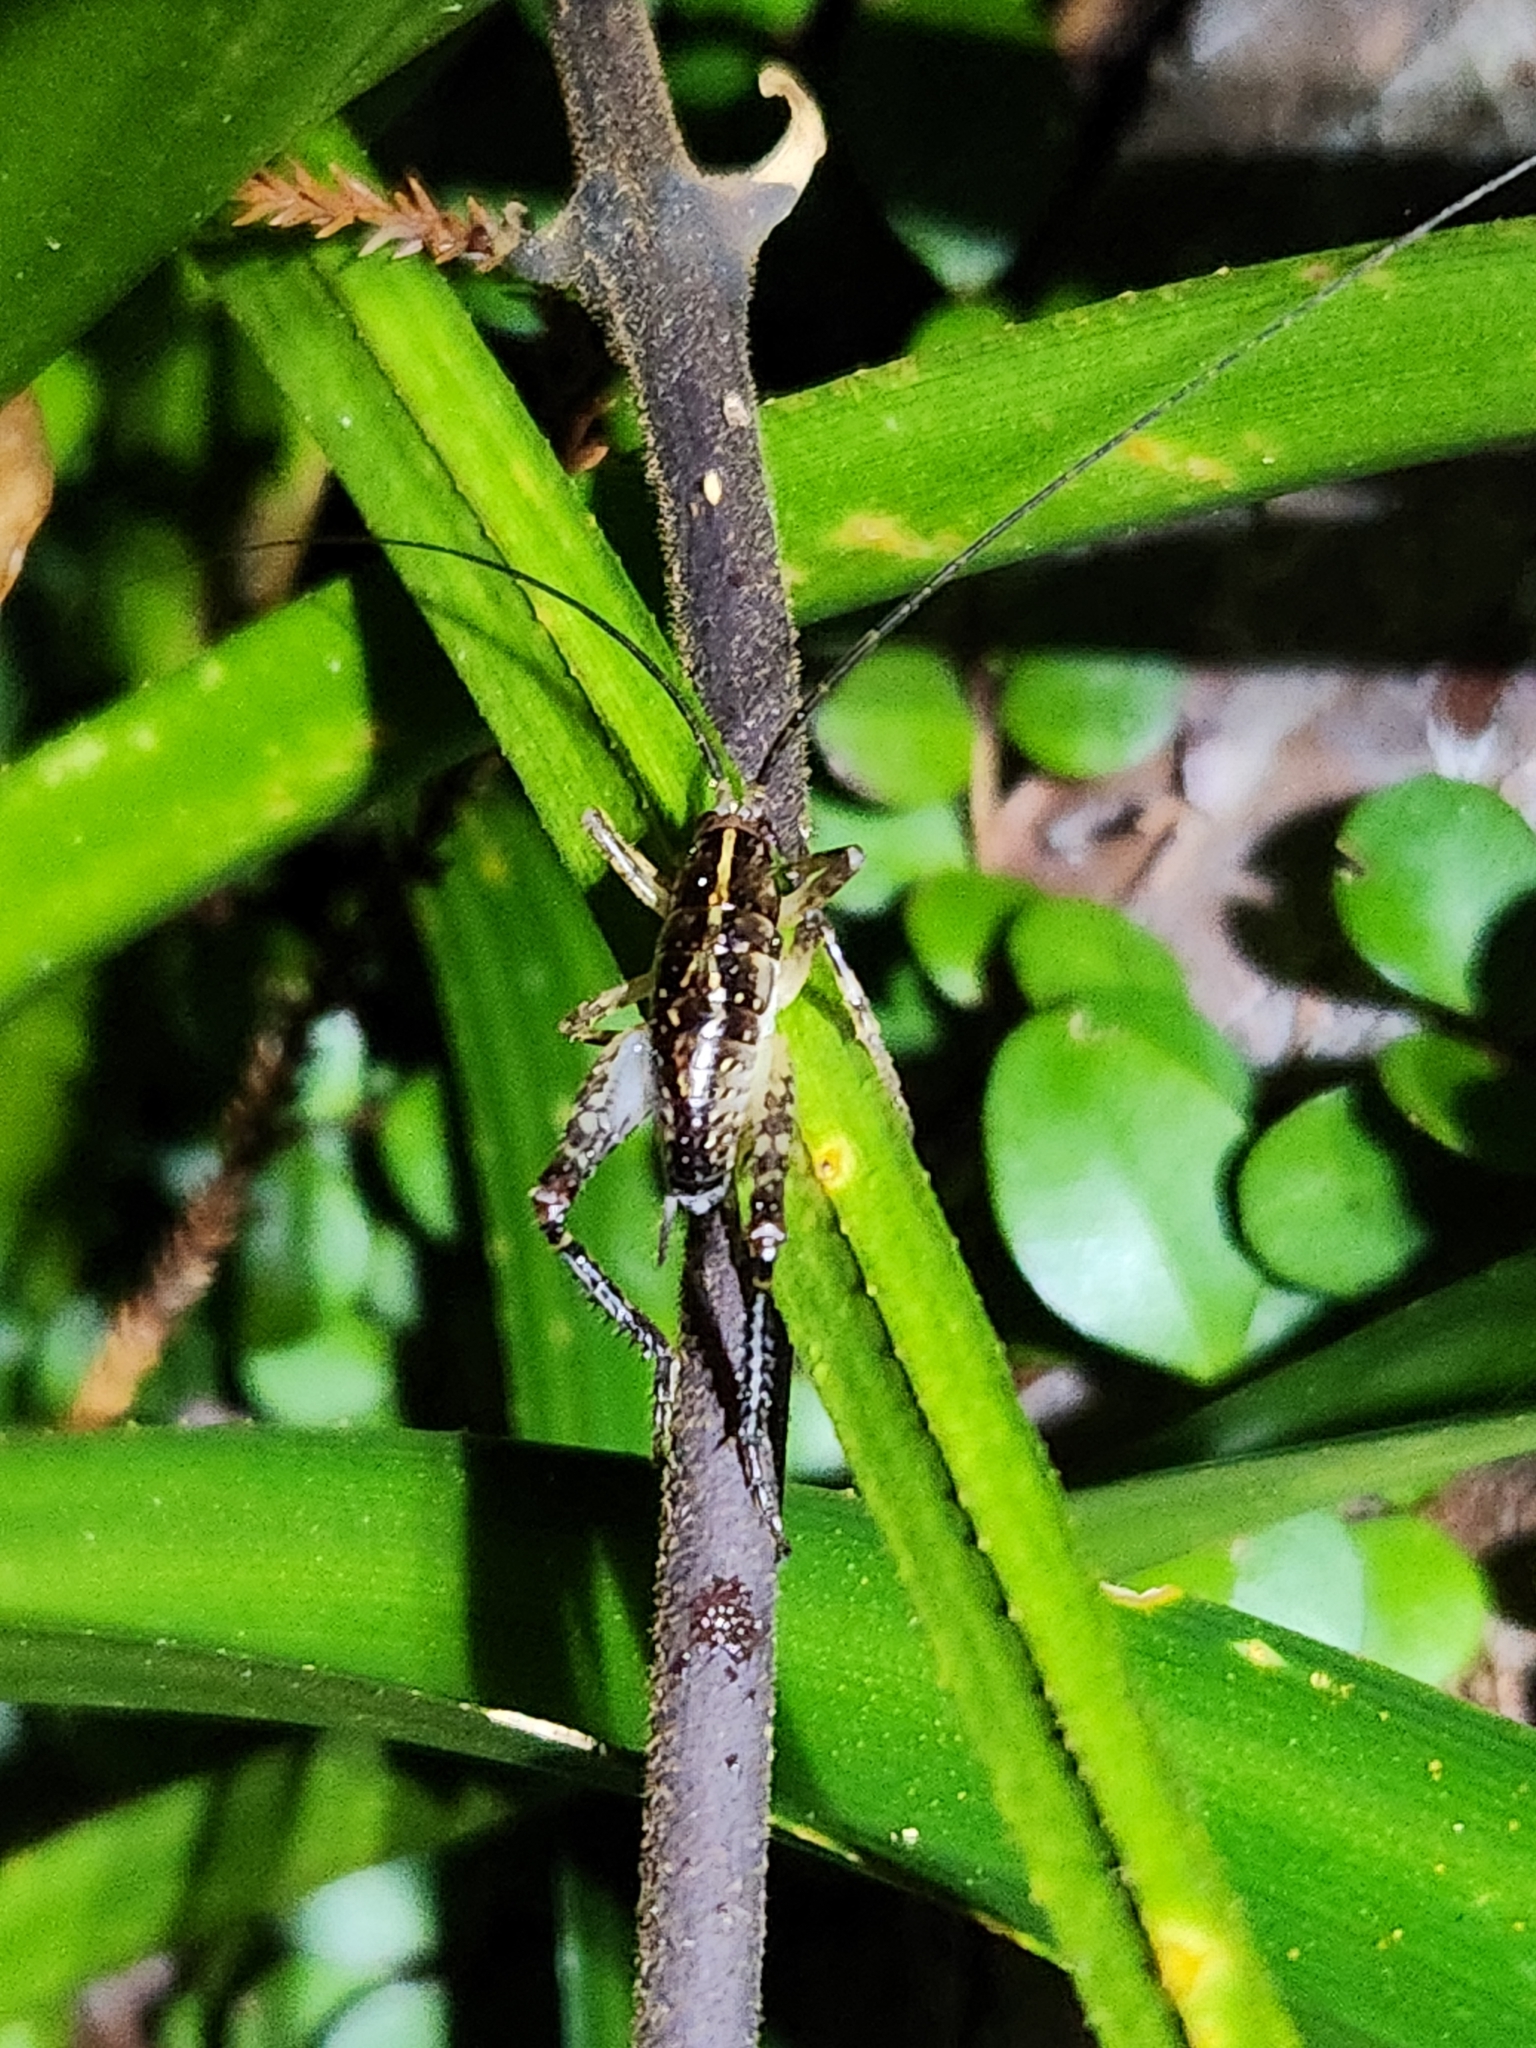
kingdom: Animalia
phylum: Arthropoda
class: Insecta
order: Orthoptera
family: Rhaphidophoridae
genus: Talitropsis
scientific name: Talitropsis sedilloti
